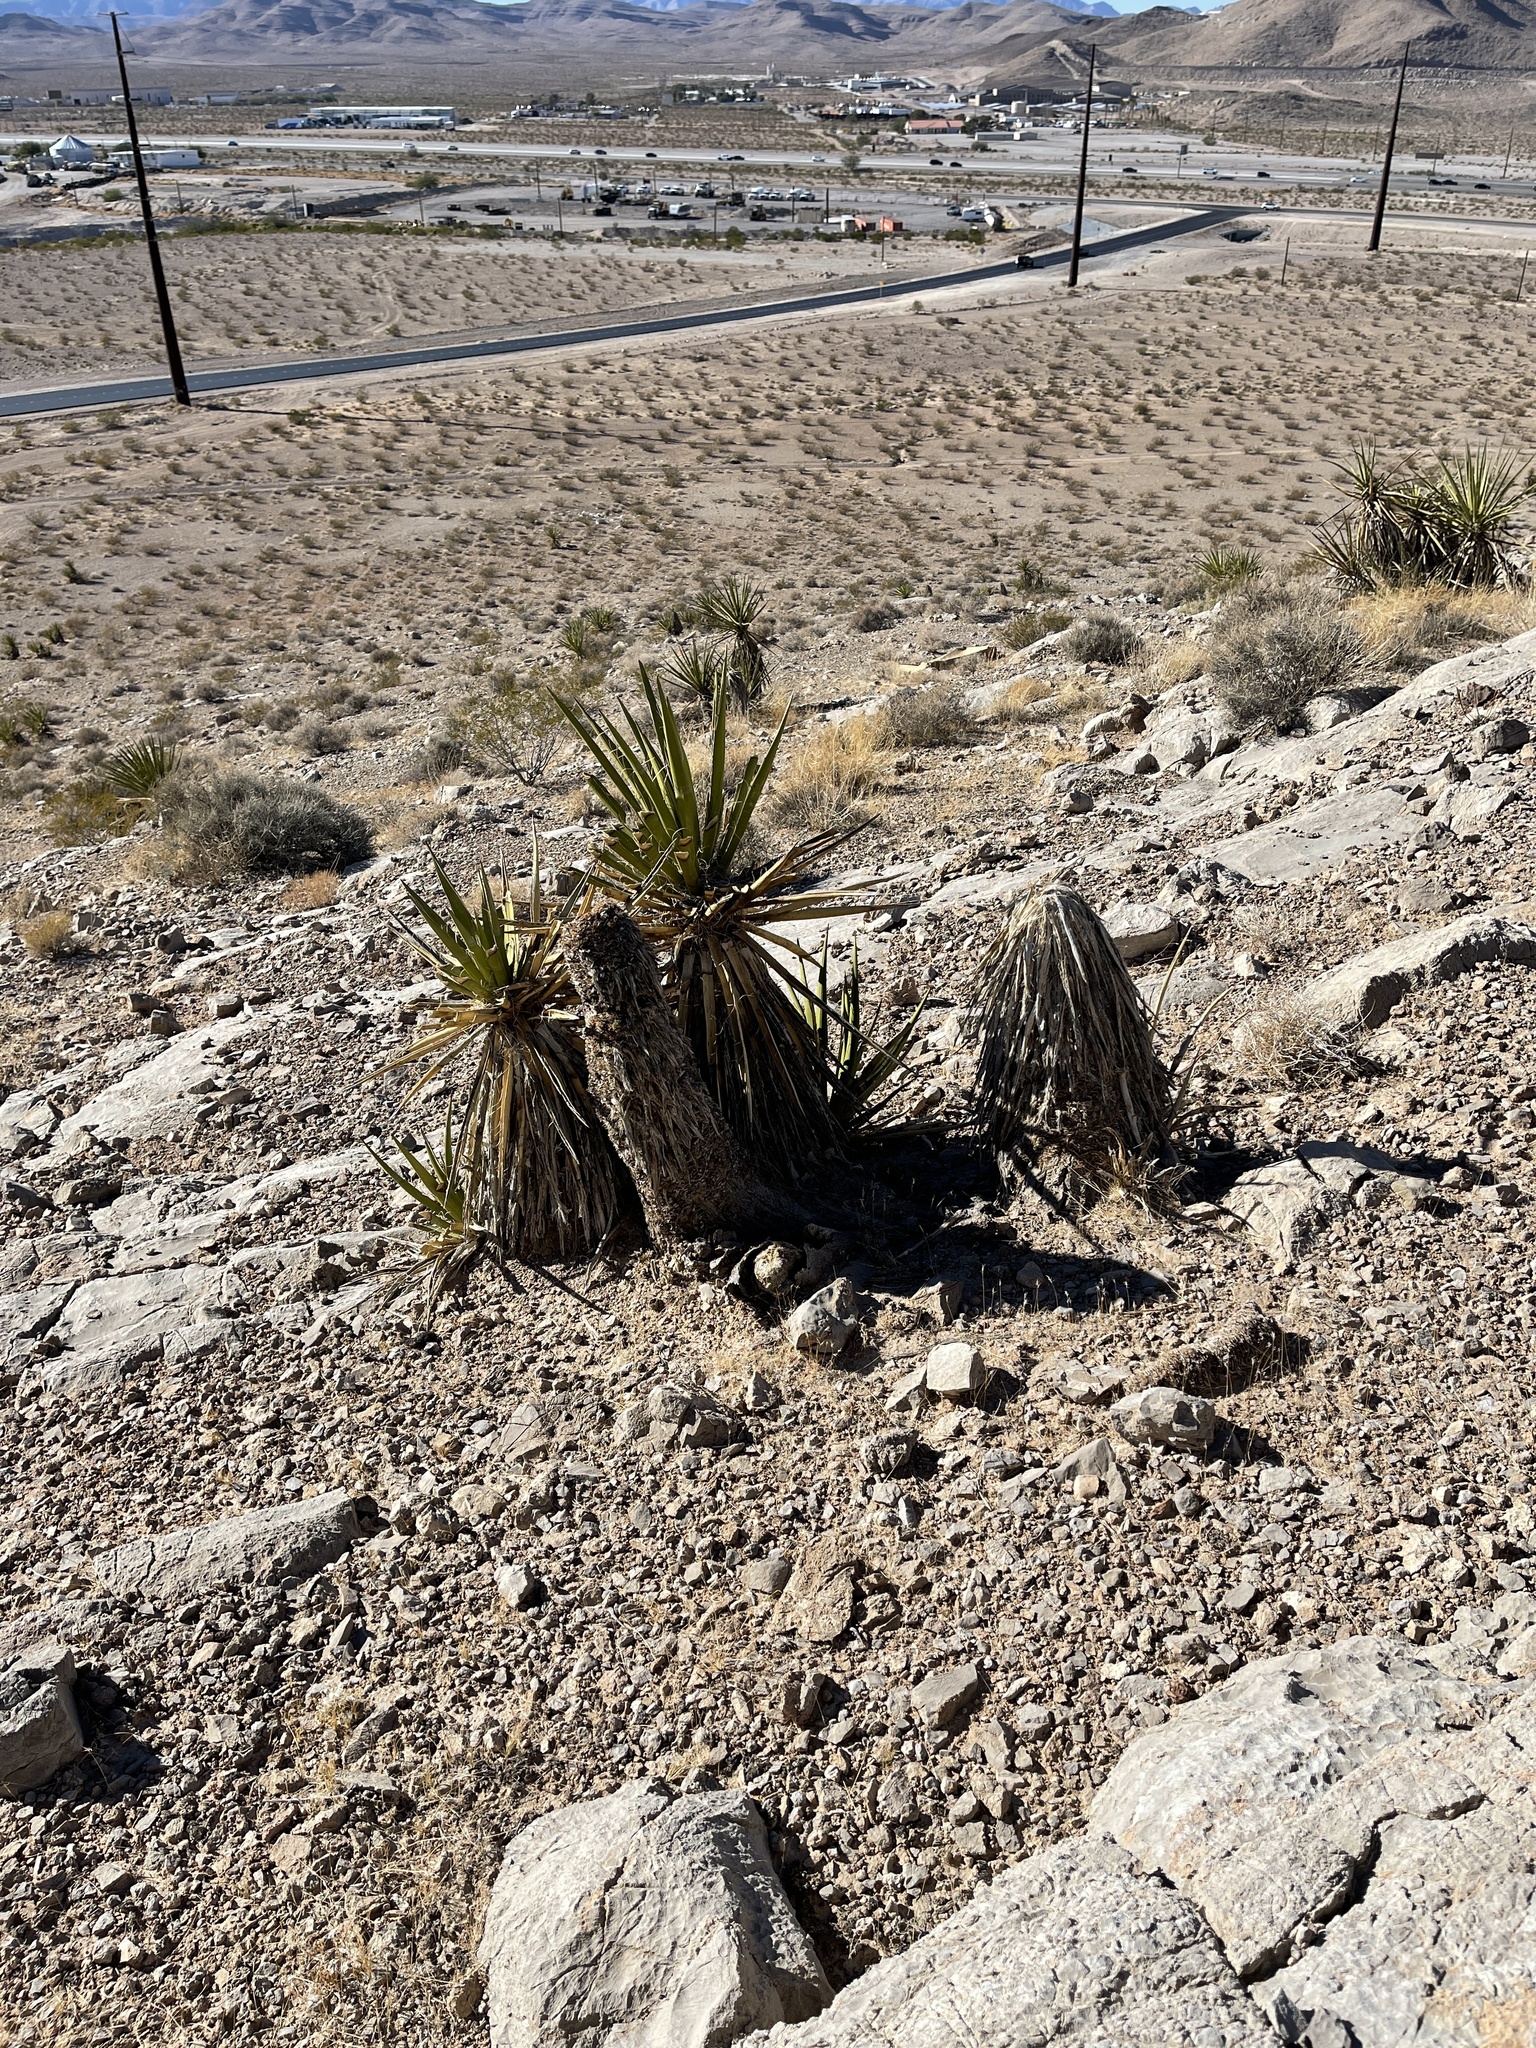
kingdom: Plantae
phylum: Tracheophyta
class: Liliopsida
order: Asparagales
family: Asparagaceae
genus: Yucca
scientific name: Yucca schidigera
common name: Mojave yucca
